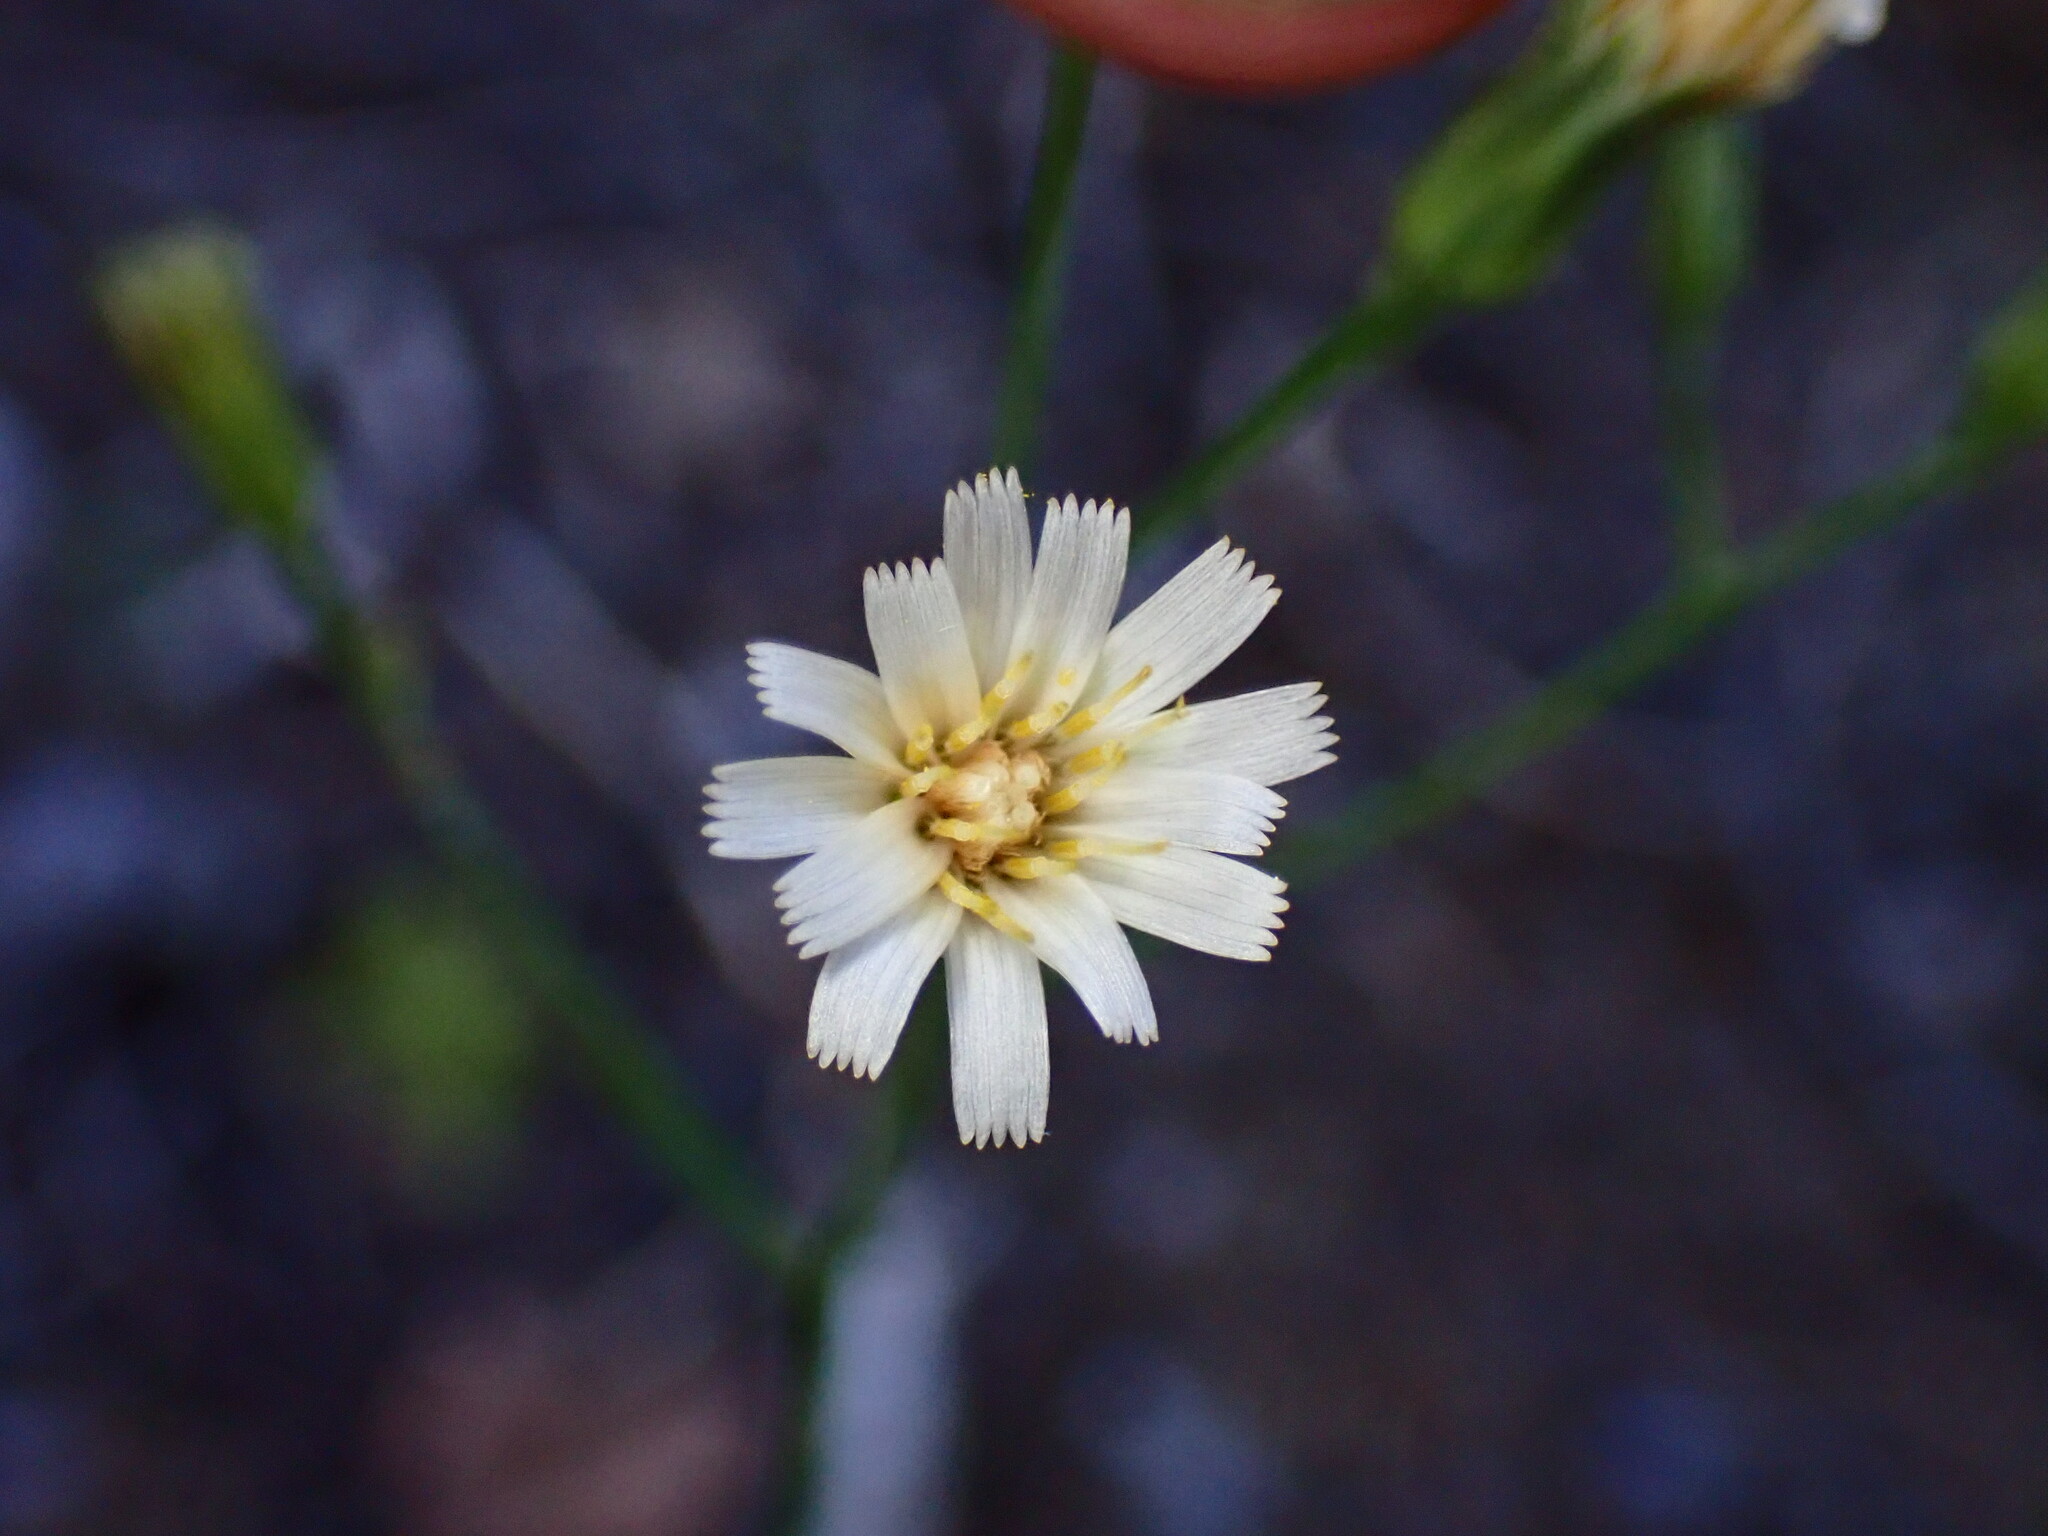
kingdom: Plantae
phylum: Tracheophyta
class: Magnoliopsida
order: Asterales
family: Asteraceae
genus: Hieracium
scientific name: Hieracium albiflorum
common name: White hawkweed
